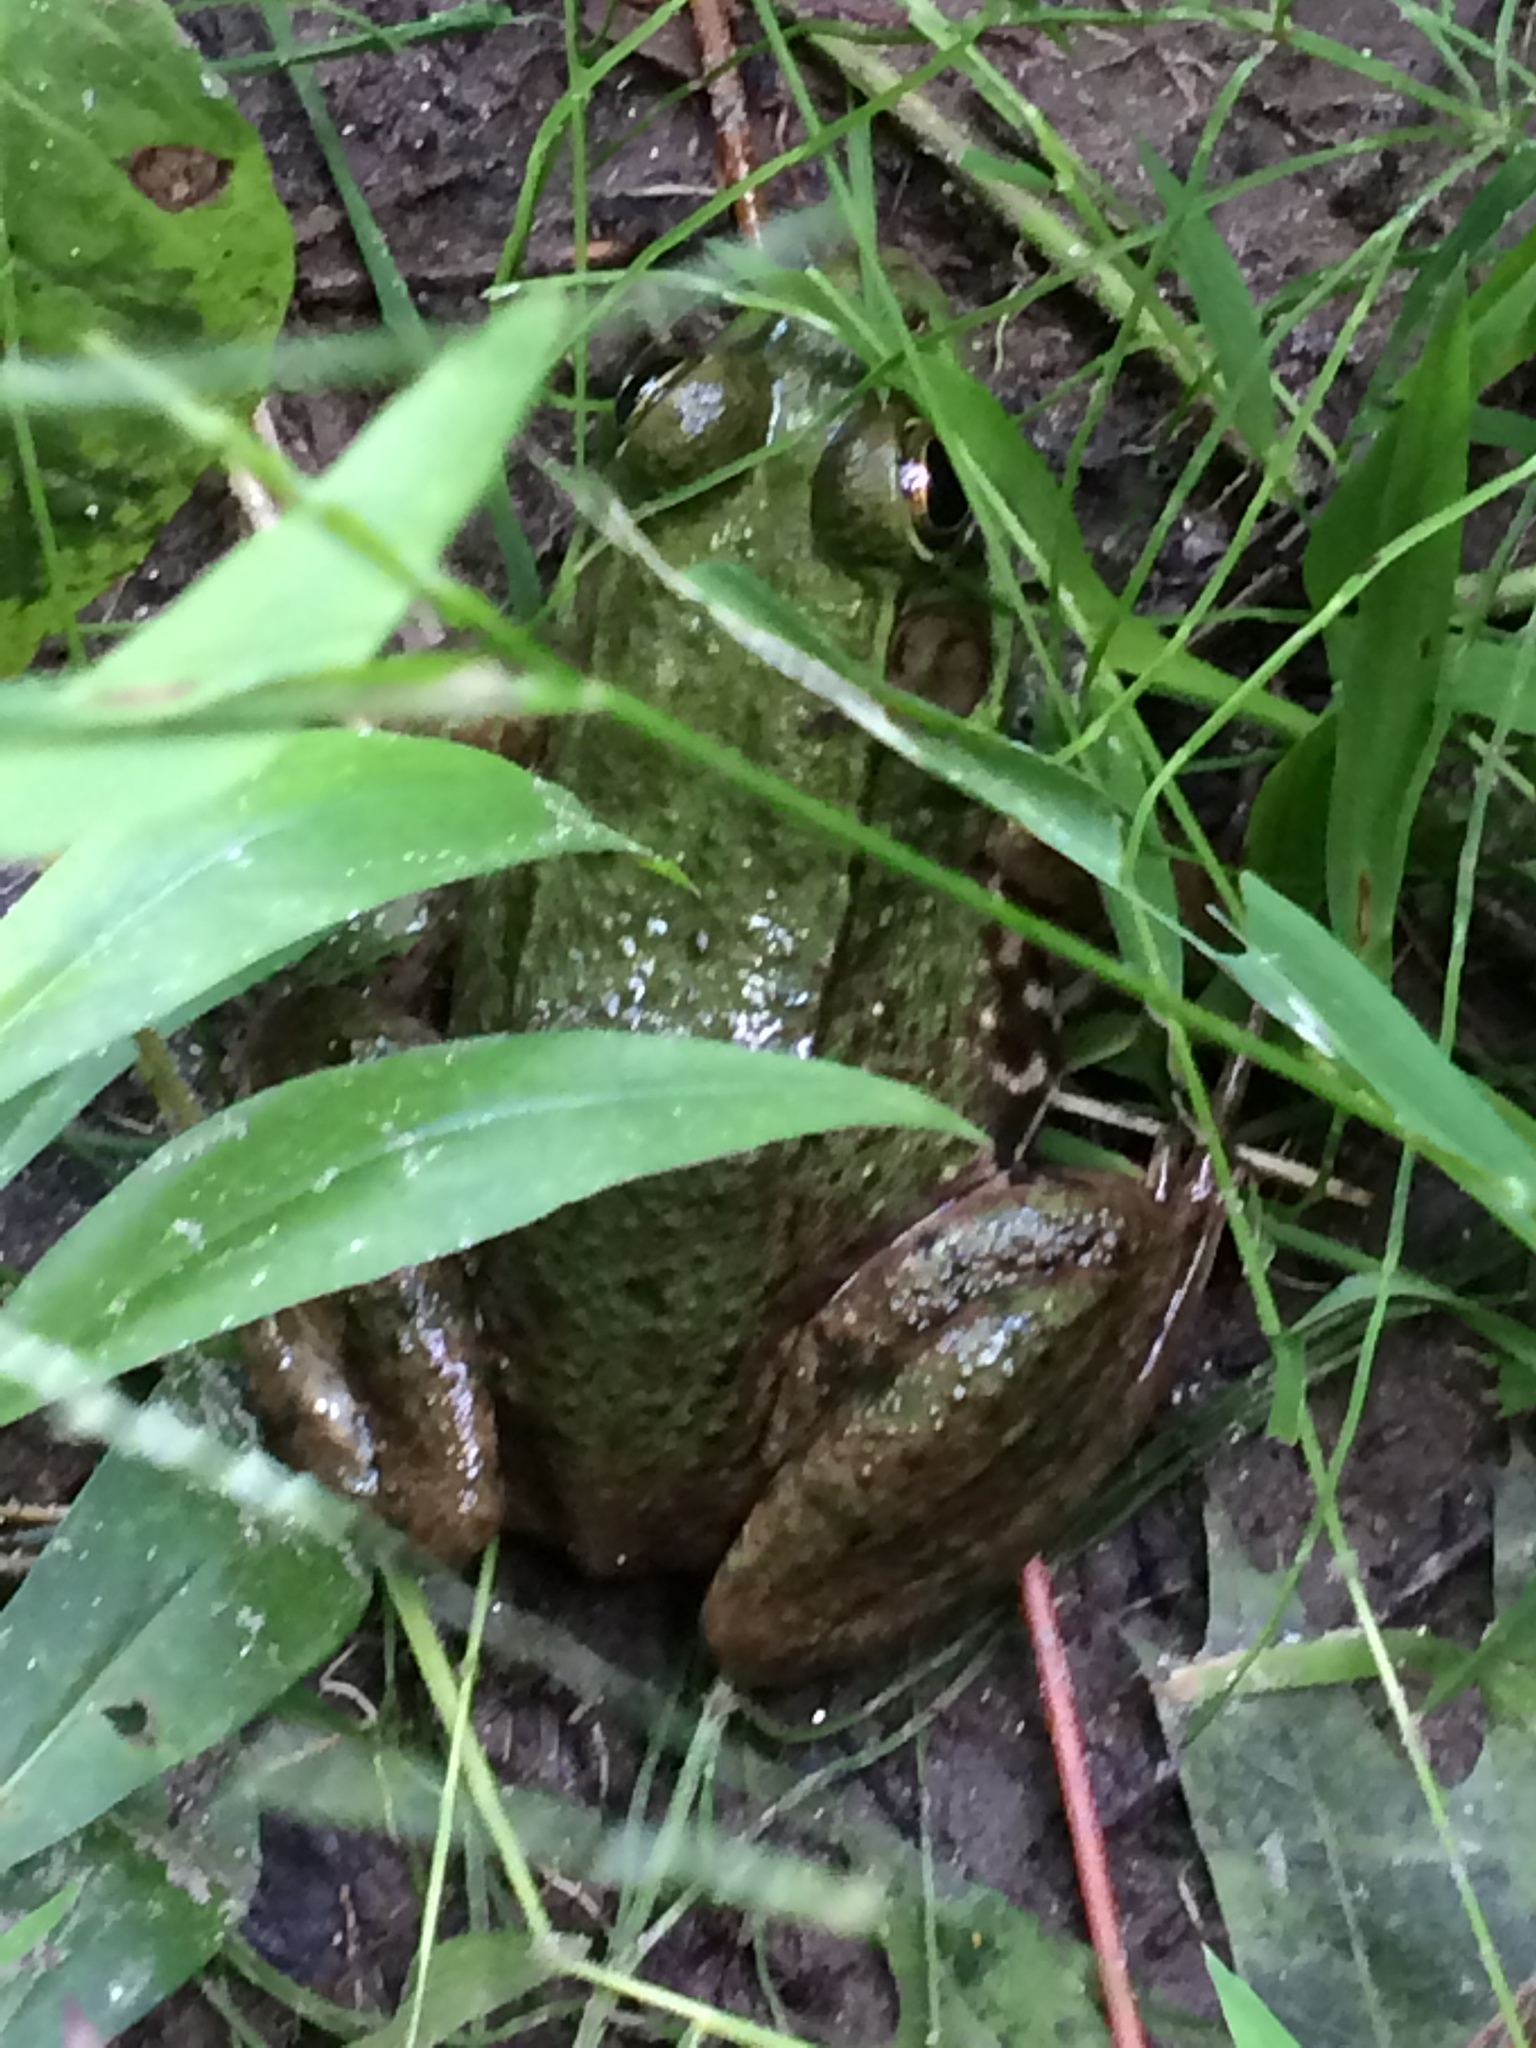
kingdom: Animalia
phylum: Chordata
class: Amphibia
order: Anura
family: Ranidae
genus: Lithobates
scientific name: Lithobates clamitans
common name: Green frog
